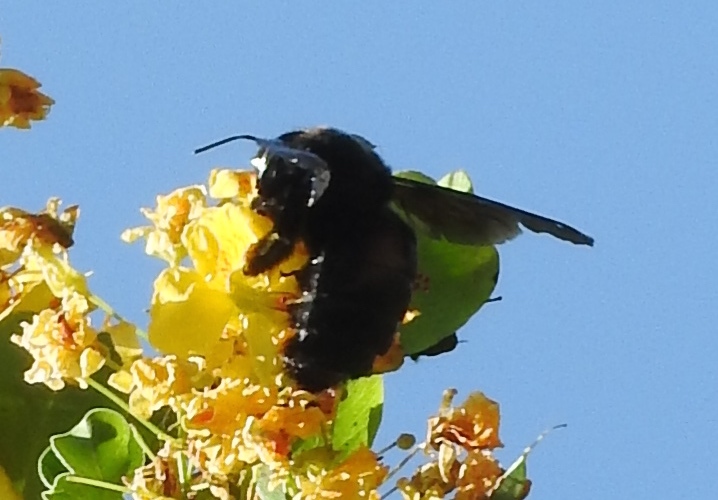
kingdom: Animalia
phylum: Arthropoda
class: Insecta
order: Hymenoptera
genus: Neoxylocopa
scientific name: Neoxylocopa
